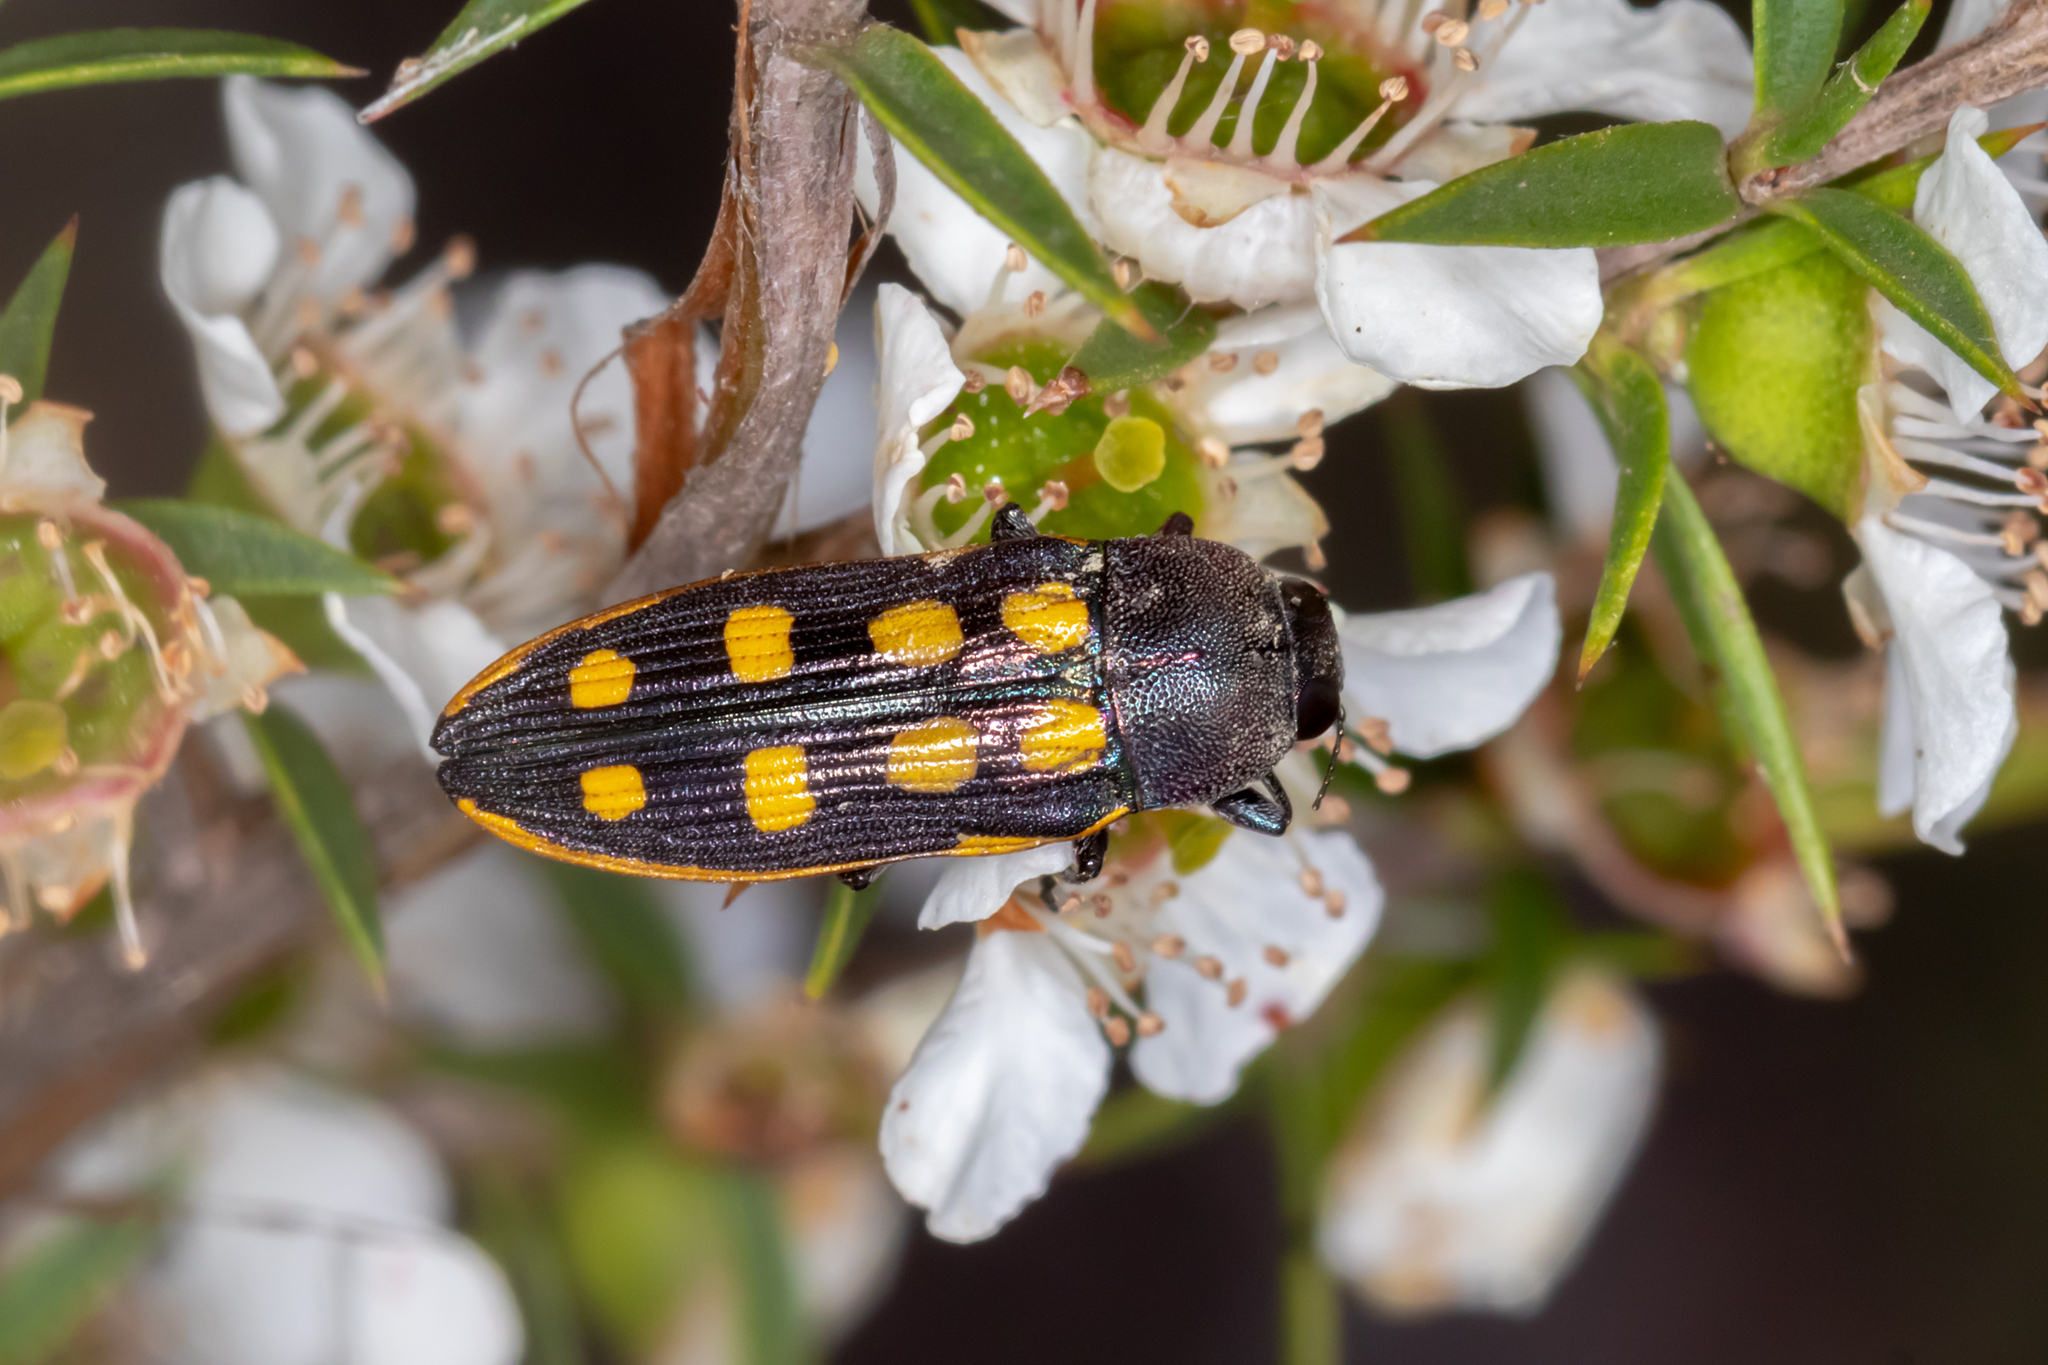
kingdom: Animalia
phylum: Arthropoda
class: Insecta
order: Coleoptera
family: Buprestidae
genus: Castiarina
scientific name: Castiarina xanthopilosa
